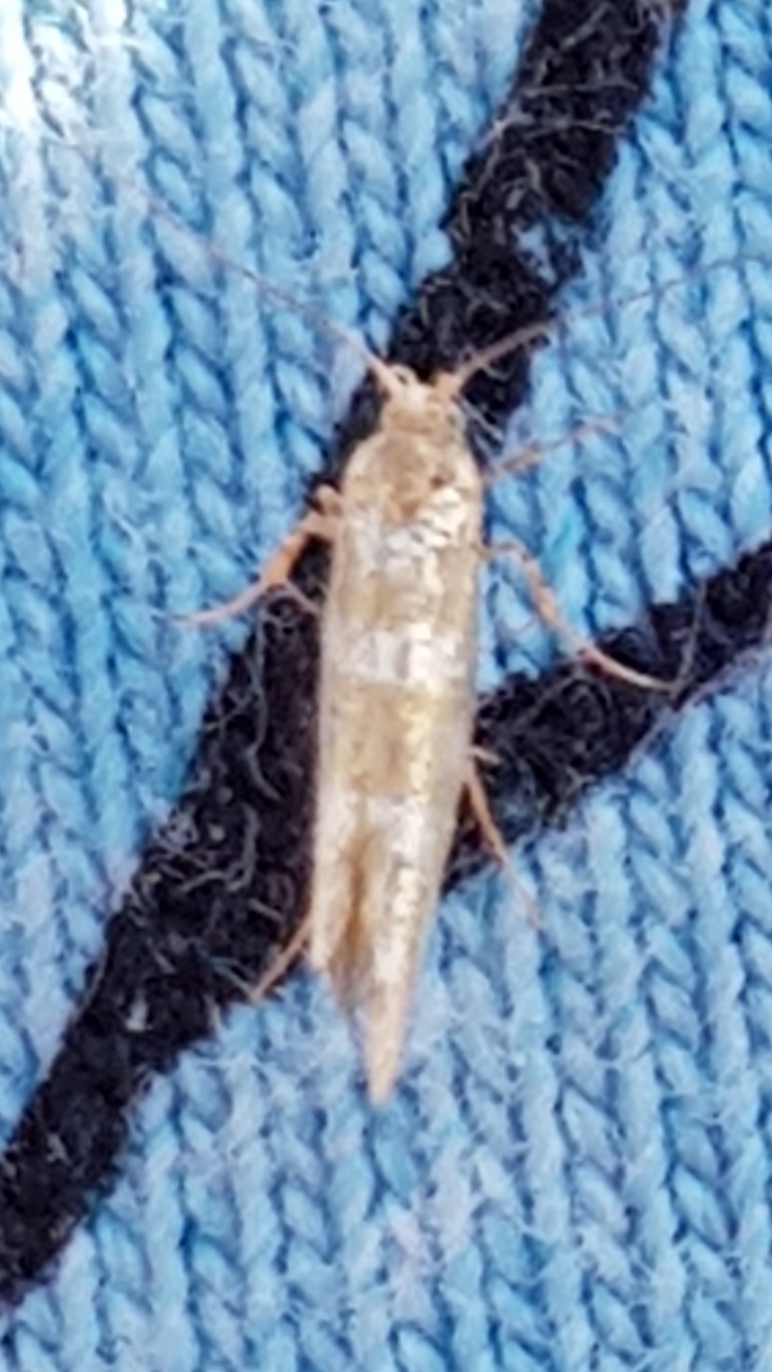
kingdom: Animalia
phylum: Arthropoda
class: Insecta
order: Lepidoptera
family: Argyresthiidae
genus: Argyresthia
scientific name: Argyresthia goedartella
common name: Golden argent
